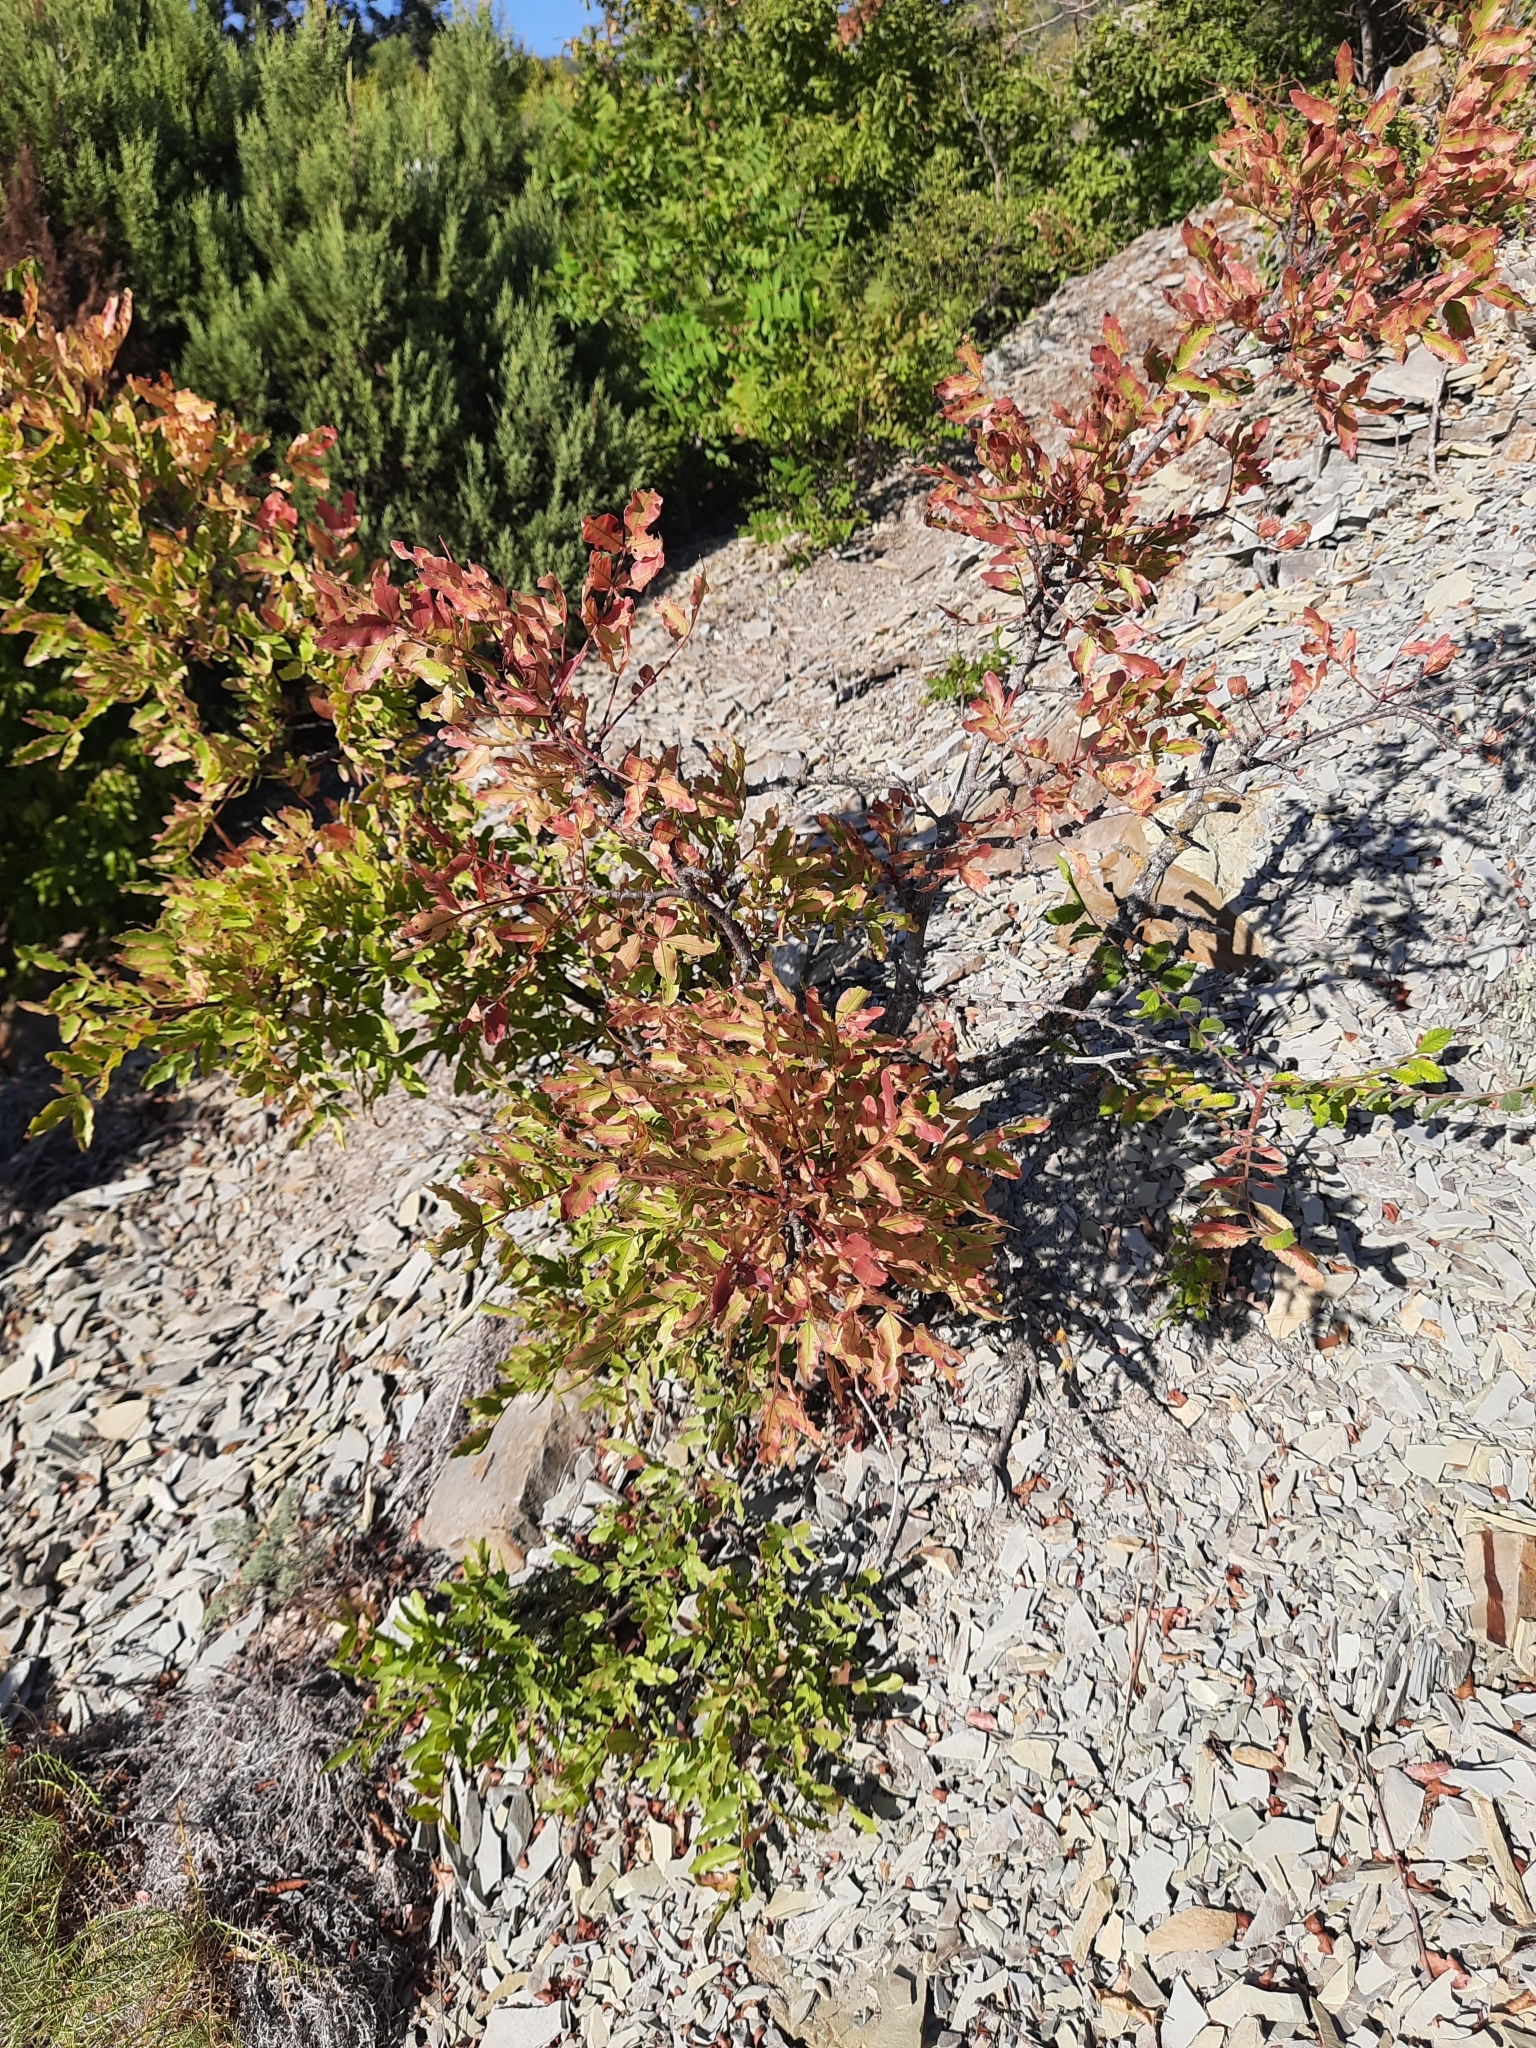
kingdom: Plantae
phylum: Tracheophyta
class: Magnoliopsida
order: Sapindales
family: Anacardiaceae
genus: Rhus
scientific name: Rhus coriaria
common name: Tanner's sumach
